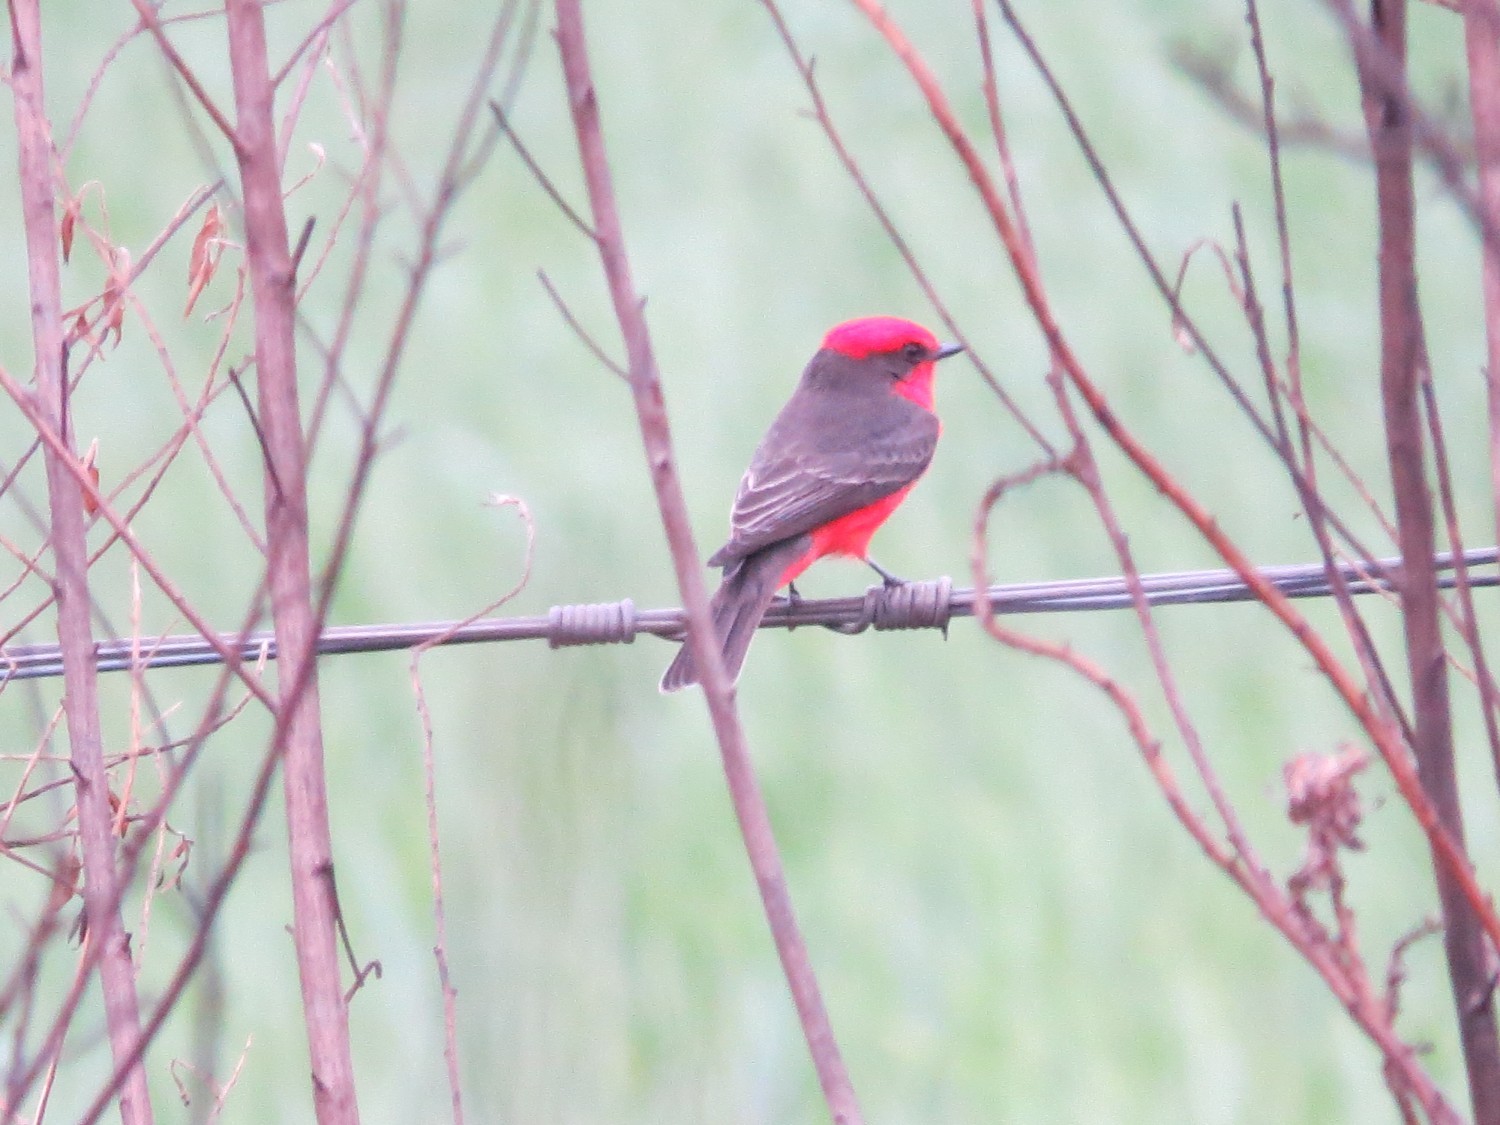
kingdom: Animalia
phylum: Chordata
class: Aves
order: Passeriformes
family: Tyrannidae
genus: Pyrocephalus
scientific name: Pyrocephalus rubinus
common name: Vermilion flycatcher
